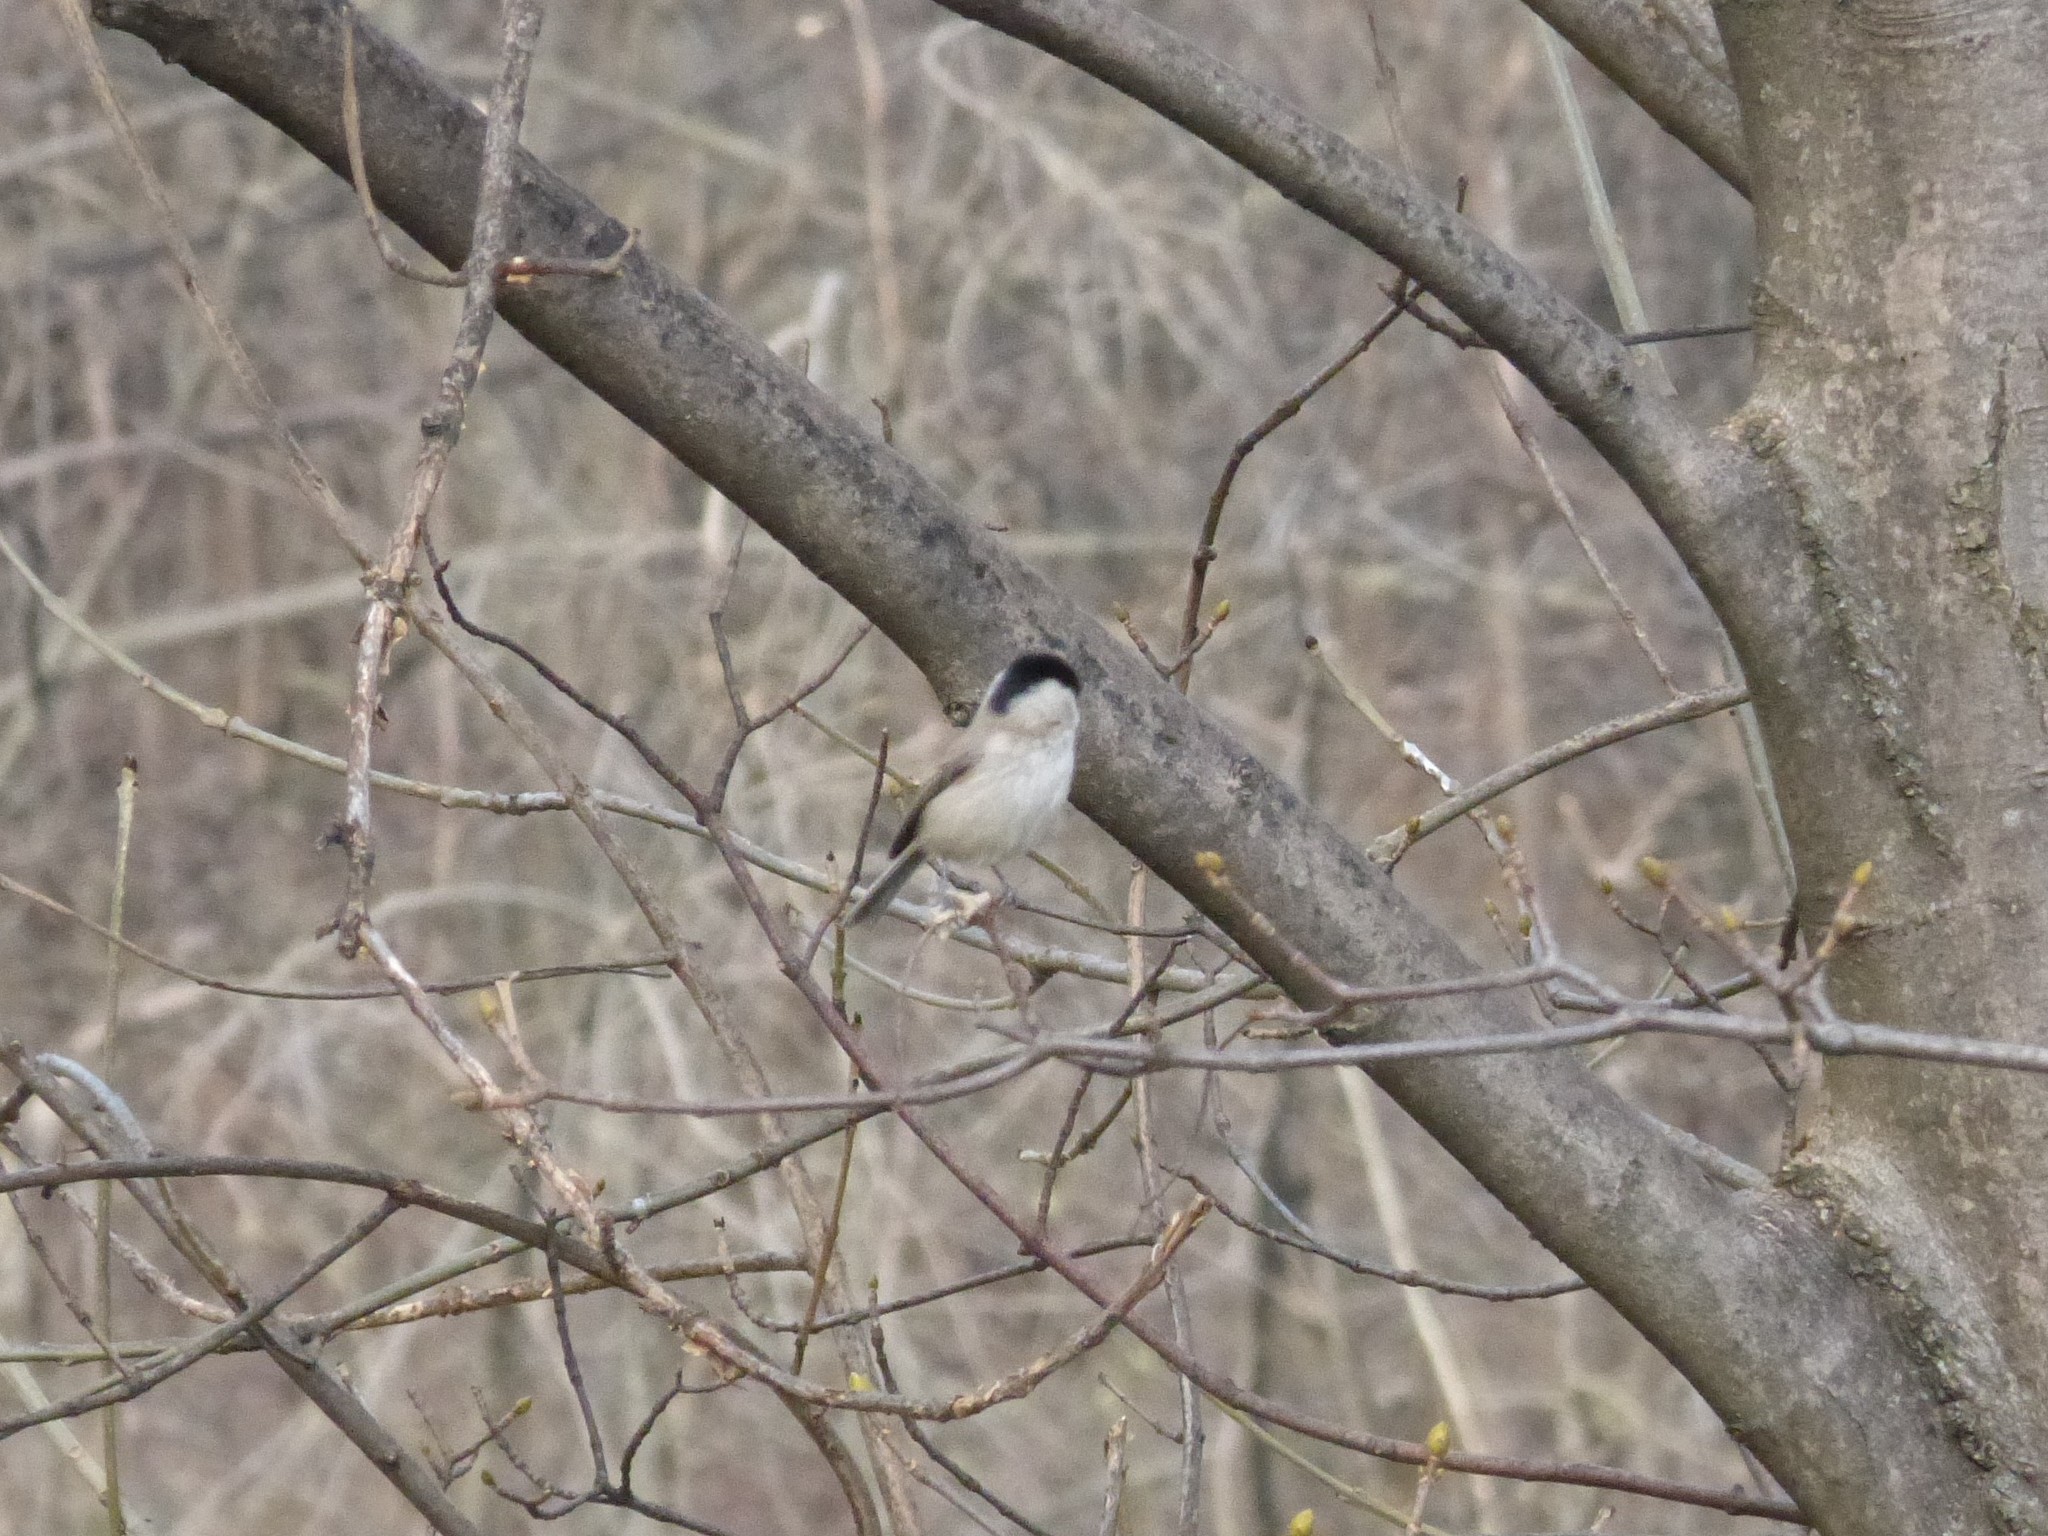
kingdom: Animalia
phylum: Chordata
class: Aves
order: Passeriformes
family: Paridae
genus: Poecile
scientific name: Poecile montanus
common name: Willow tit
